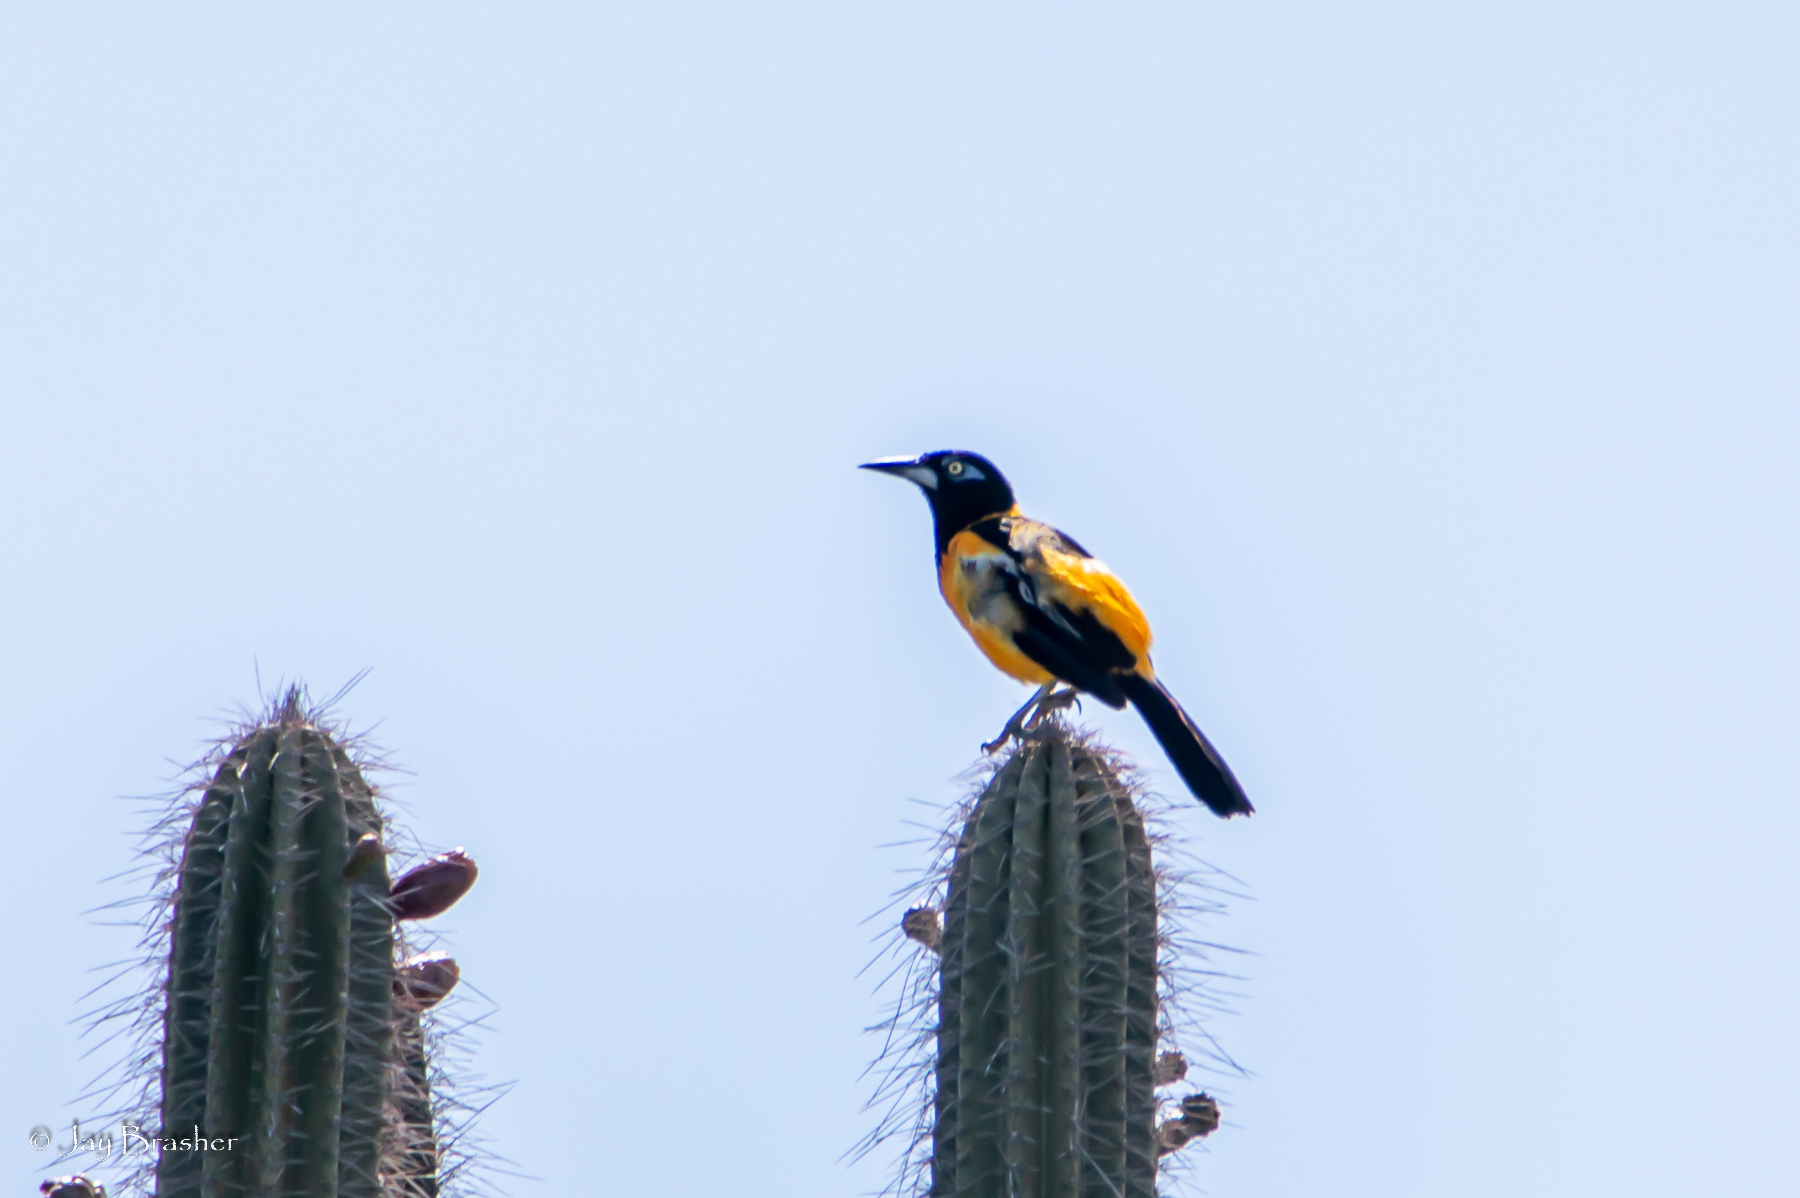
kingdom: Animalia
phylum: Chordata
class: Aves
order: Passeriformes
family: Icteridae
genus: Icterus
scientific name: Icterus icterus
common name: Venezuelan troupial
